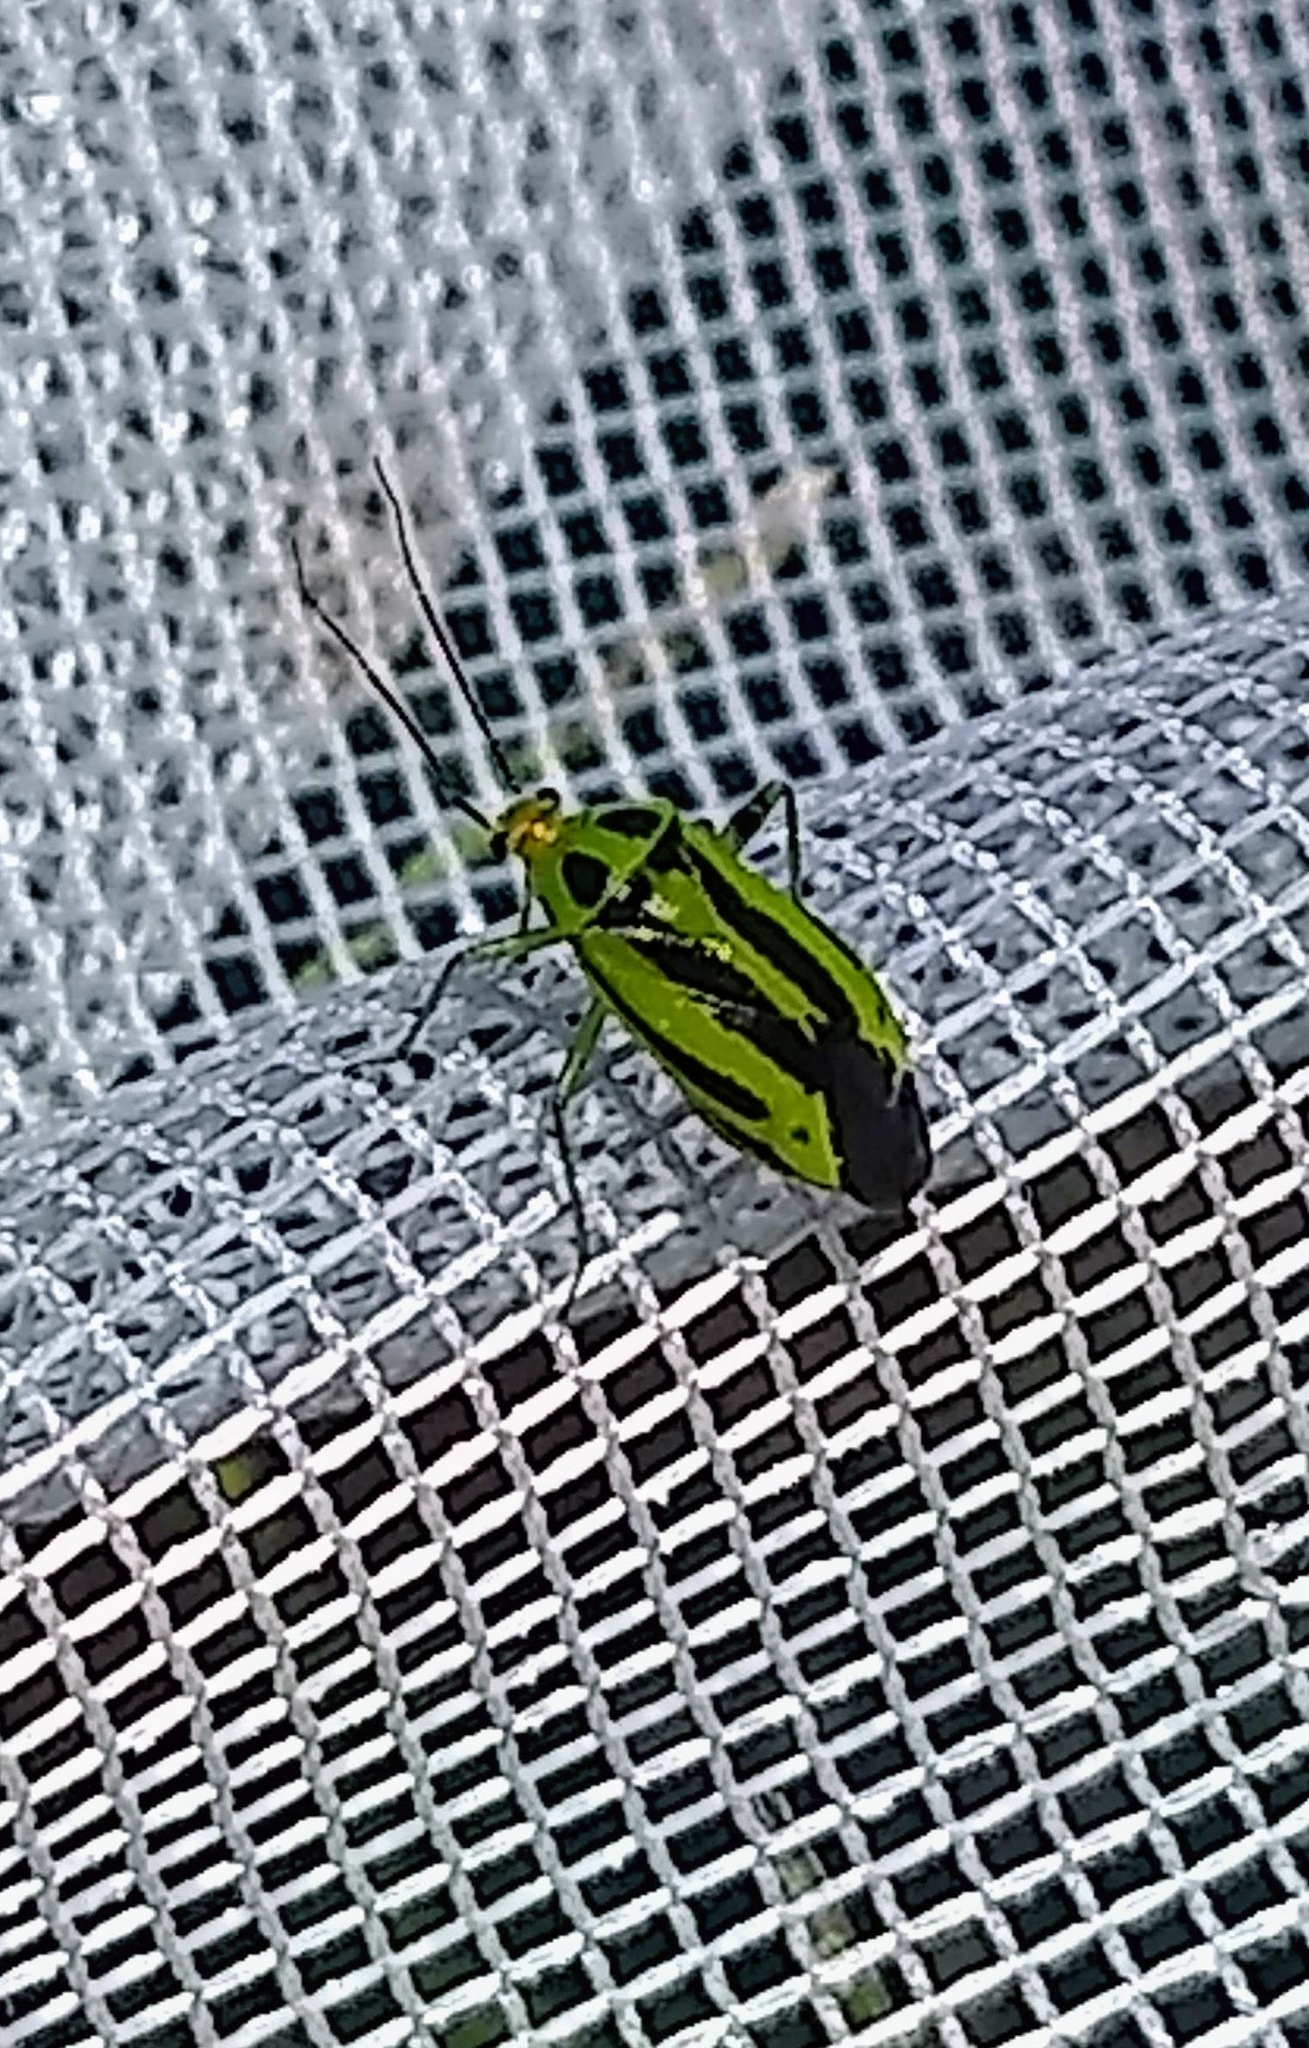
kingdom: Animalia
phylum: Arthropoda
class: Insecta
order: Hemiptera
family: Miridae
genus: Poecilocapsus
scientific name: Poecilocapsus lineatus
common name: Four-lined plant bug
